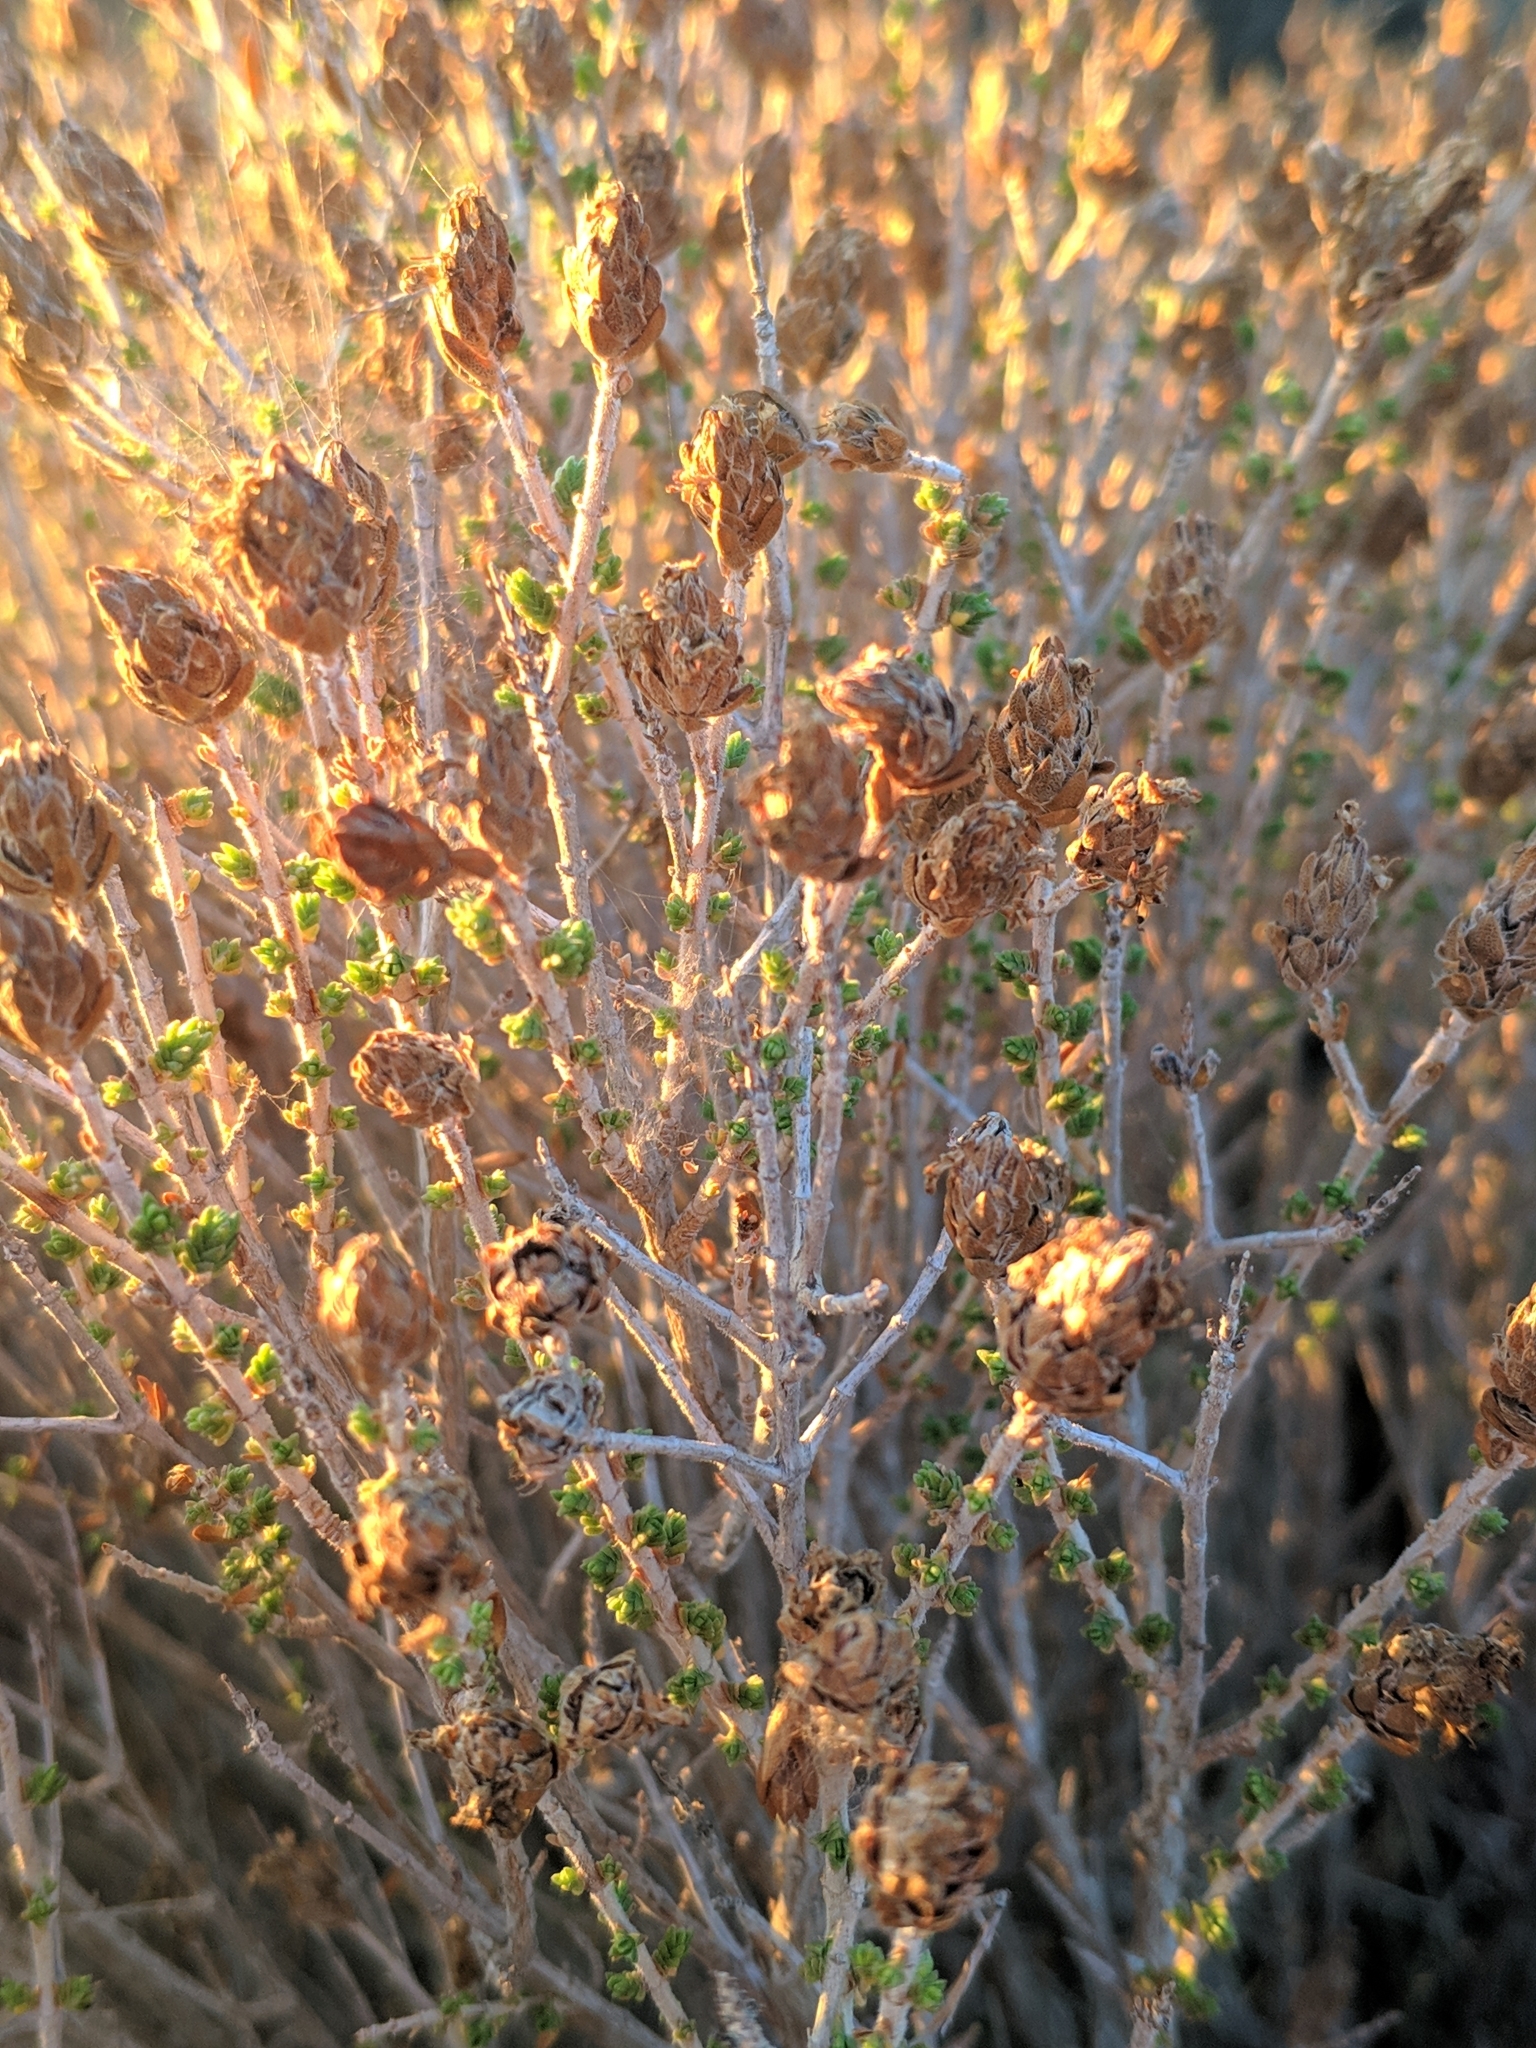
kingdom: Plantae
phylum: Tracheophyta
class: Magnoliopsida
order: Lamiales
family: Lamiaceae
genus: Thymbra
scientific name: Thymbra capitata
